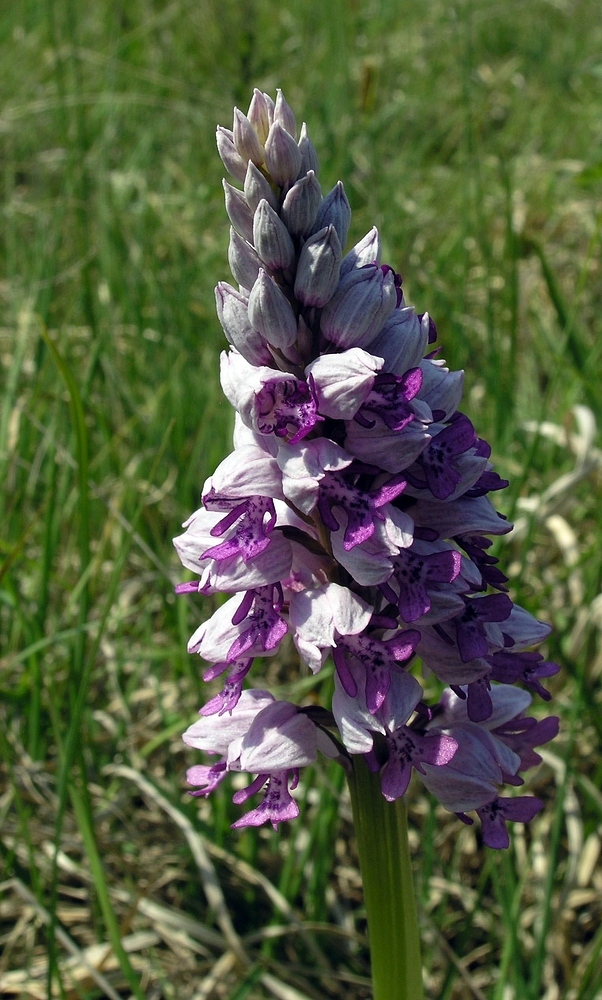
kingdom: Plantae
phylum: Tracheophyta
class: Liliopsida
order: Asparagales
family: Orchidaceae
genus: Orchis
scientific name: Orchis militaris
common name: Military orchid
